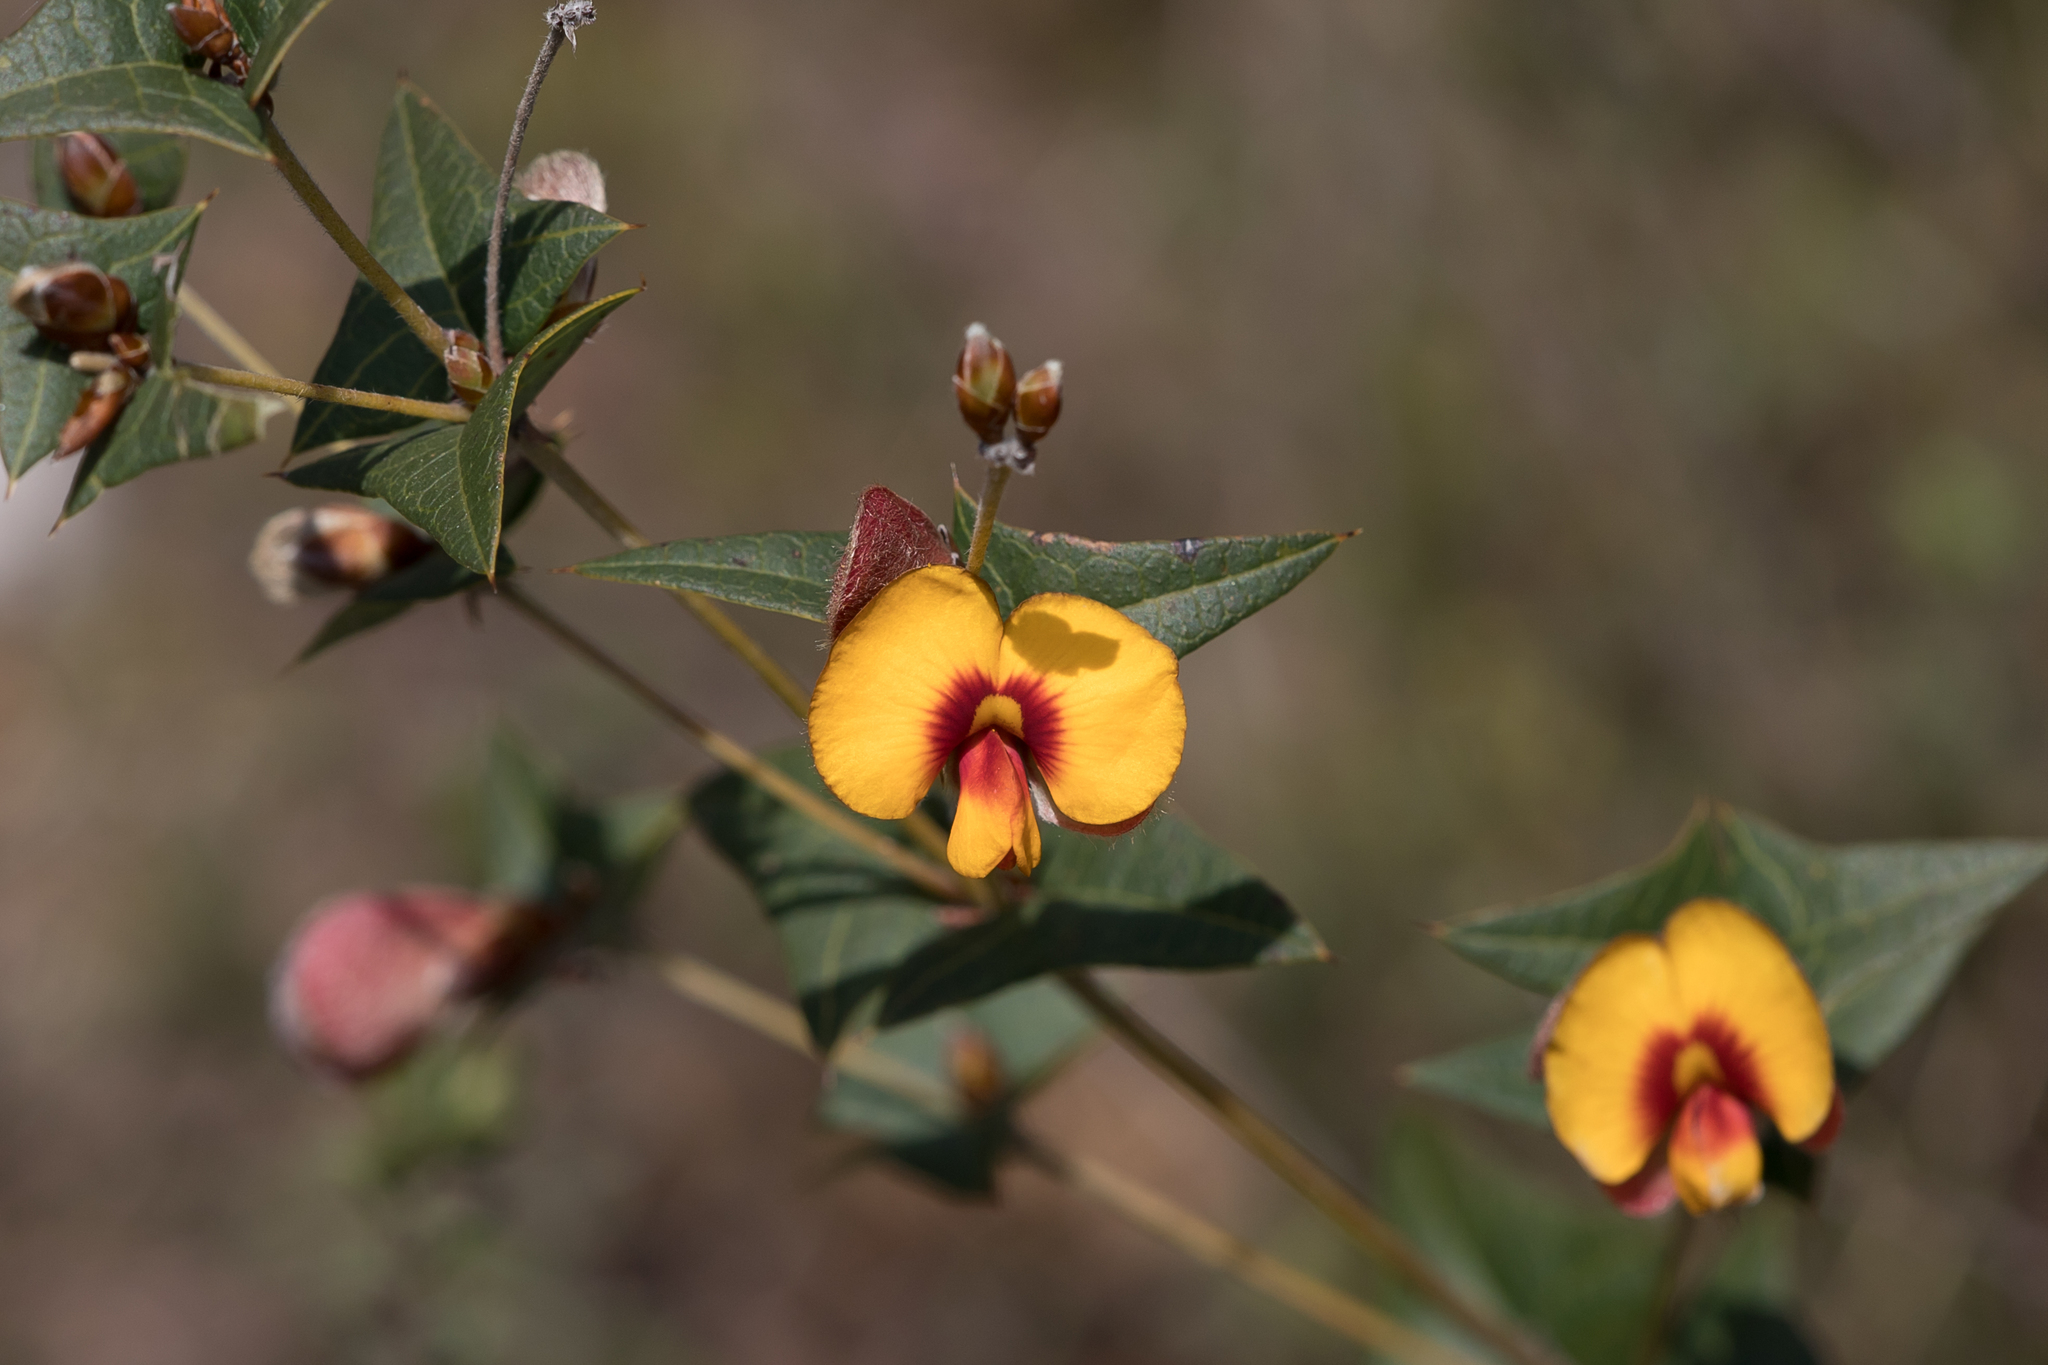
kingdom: Plantae
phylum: Tracheophyta
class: Magnoliopsida
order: Fabales
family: Fabaceae
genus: Platylobium
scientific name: Platylobium obtusangulum
